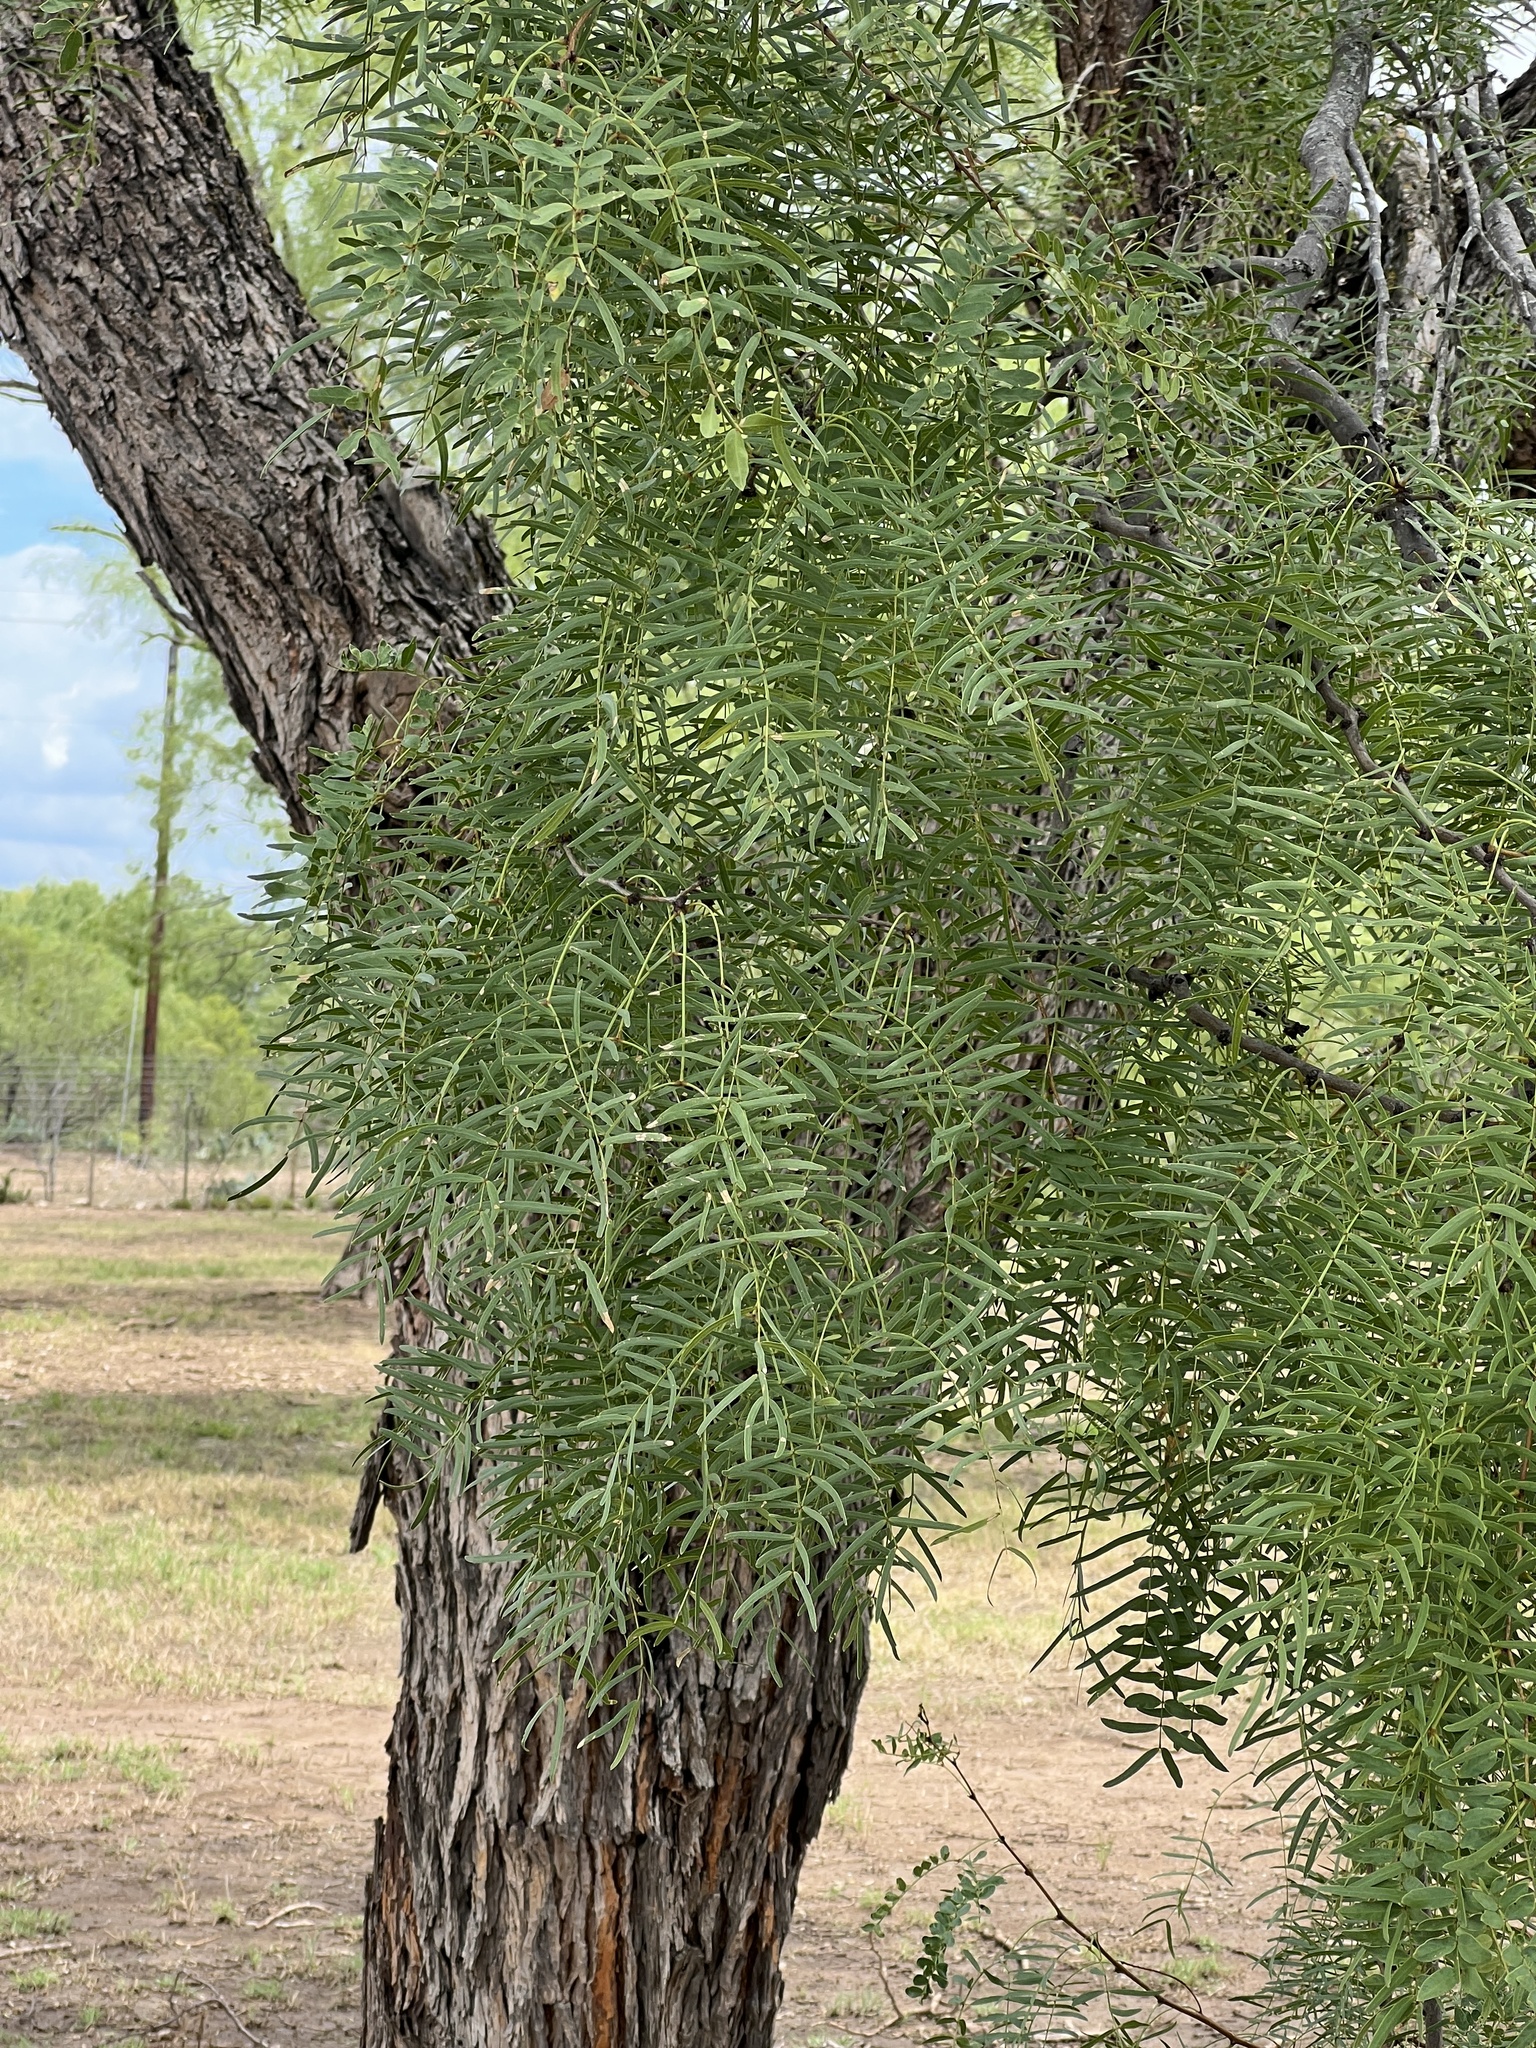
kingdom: Plantae
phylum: Tracheophyta
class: Magnoliopsida
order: Fabales
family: Fabaceae
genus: Prosopis
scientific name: Prosopis glandulosa
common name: Honey mesquite
